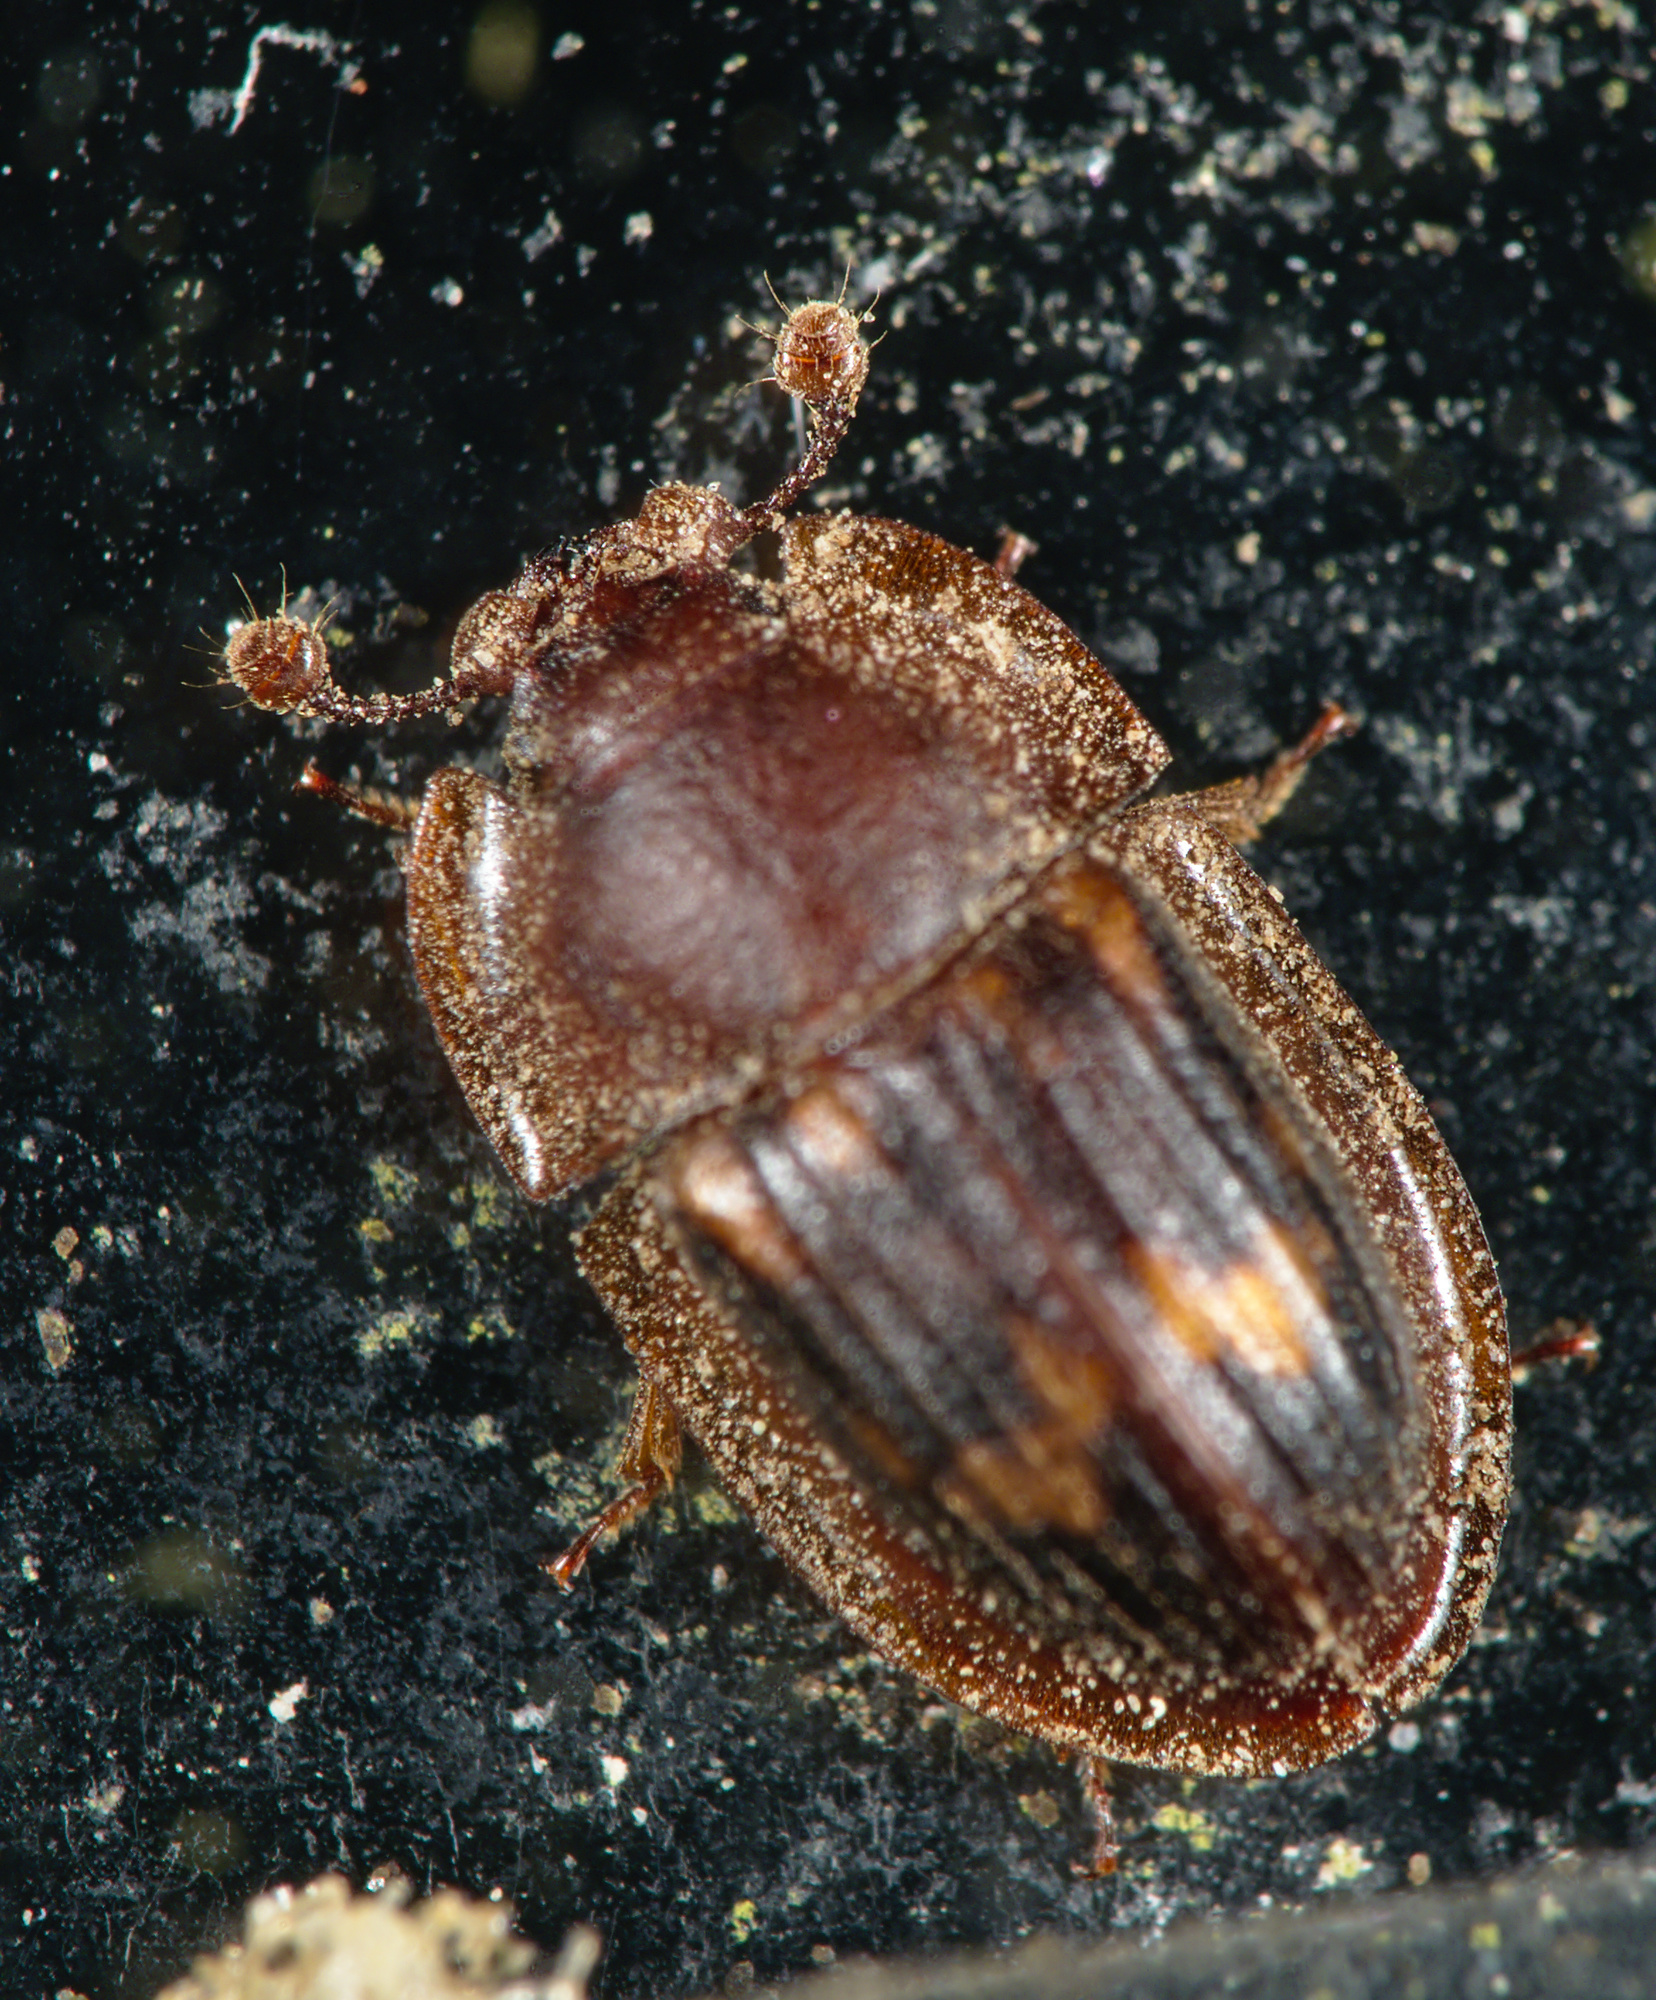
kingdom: Animalia
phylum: Arthropoda
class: Insecta
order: Coleoptera
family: Nitidulidae
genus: Amphotis
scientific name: Amphotis marginata
